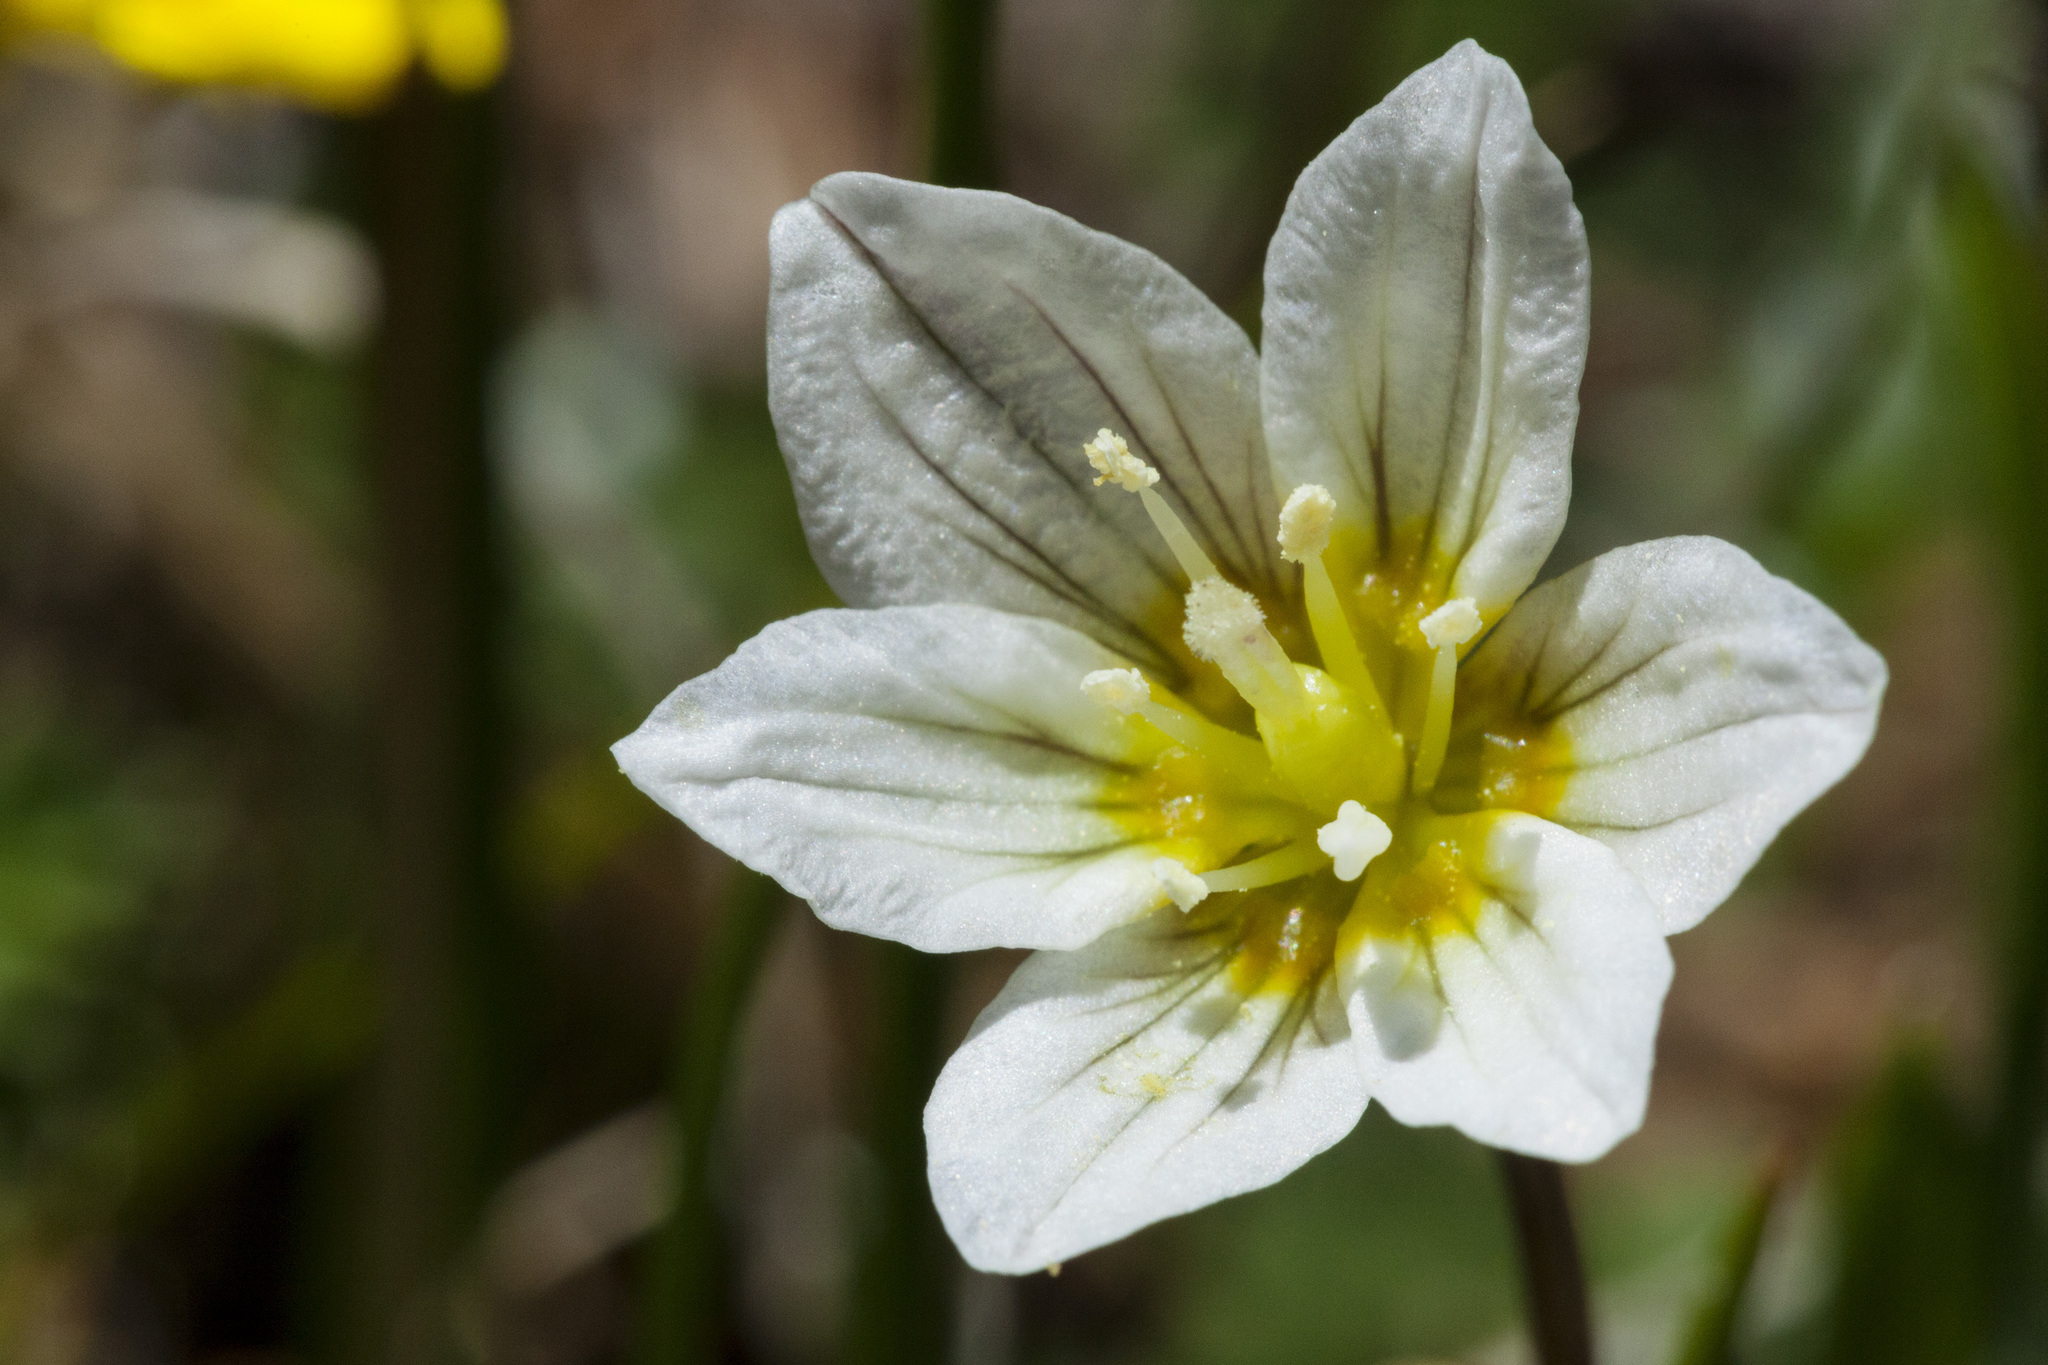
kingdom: Plantae
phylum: Tracheophyta
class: Liliopsida
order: Liliales
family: Liliaceae
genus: Gagea
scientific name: Gagea serotina
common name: Snowdon lily
